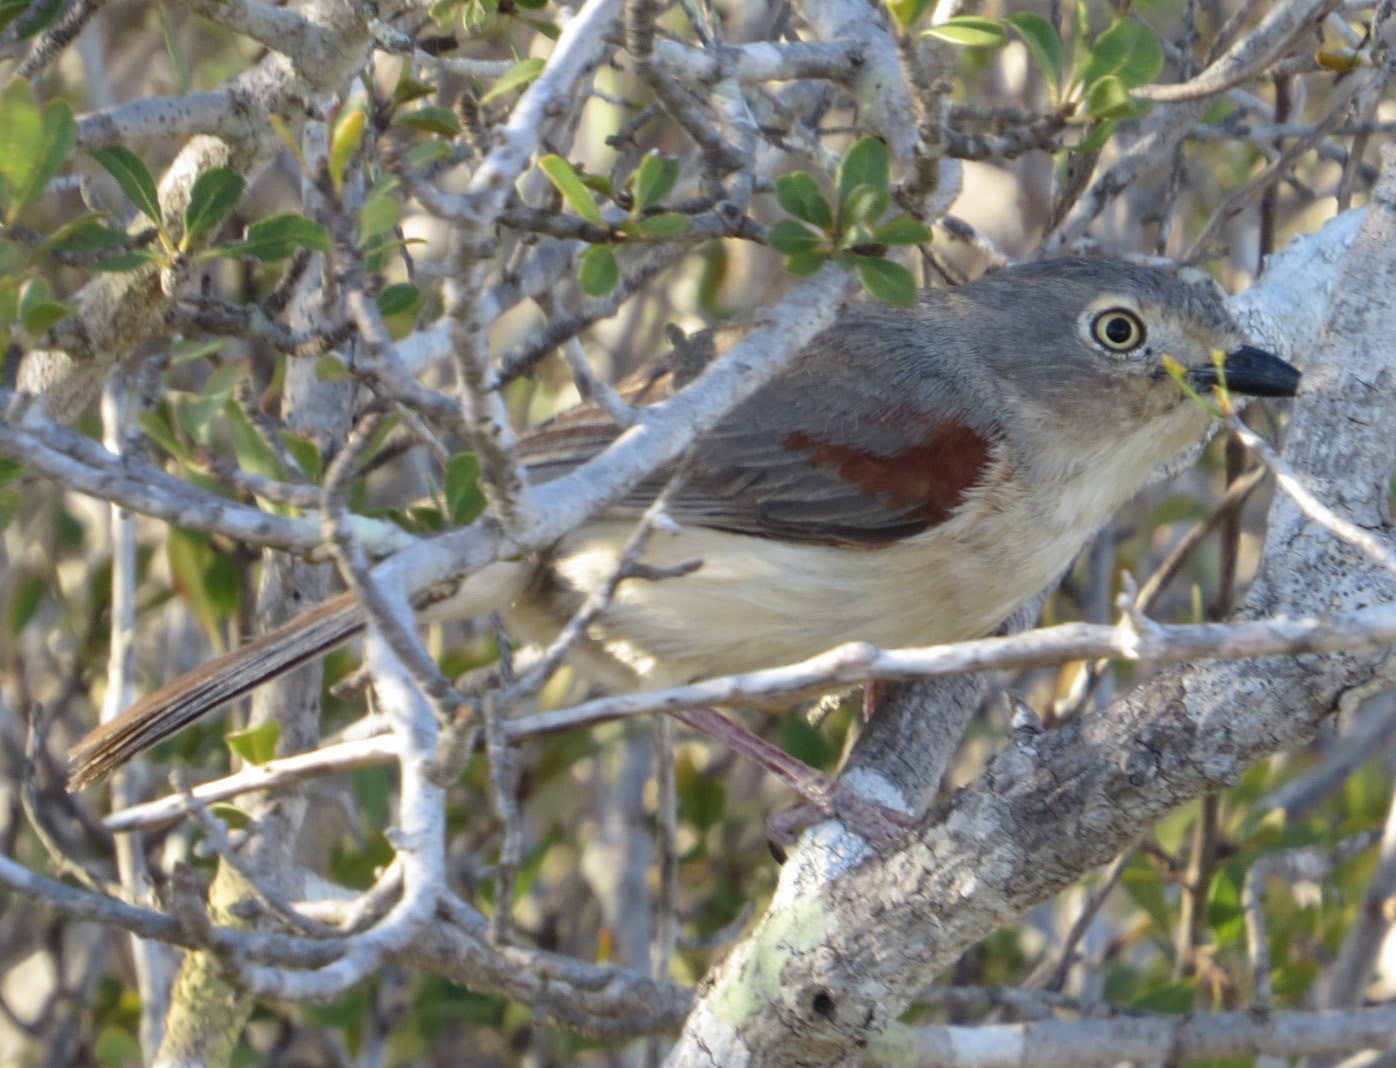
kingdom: Animalia
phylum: Chordata
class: Aves
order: Passeriformes
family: Vangidae
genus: Calicalicus
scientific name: Calicalicus rufocarpalis
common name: Red-shouldered vanga
